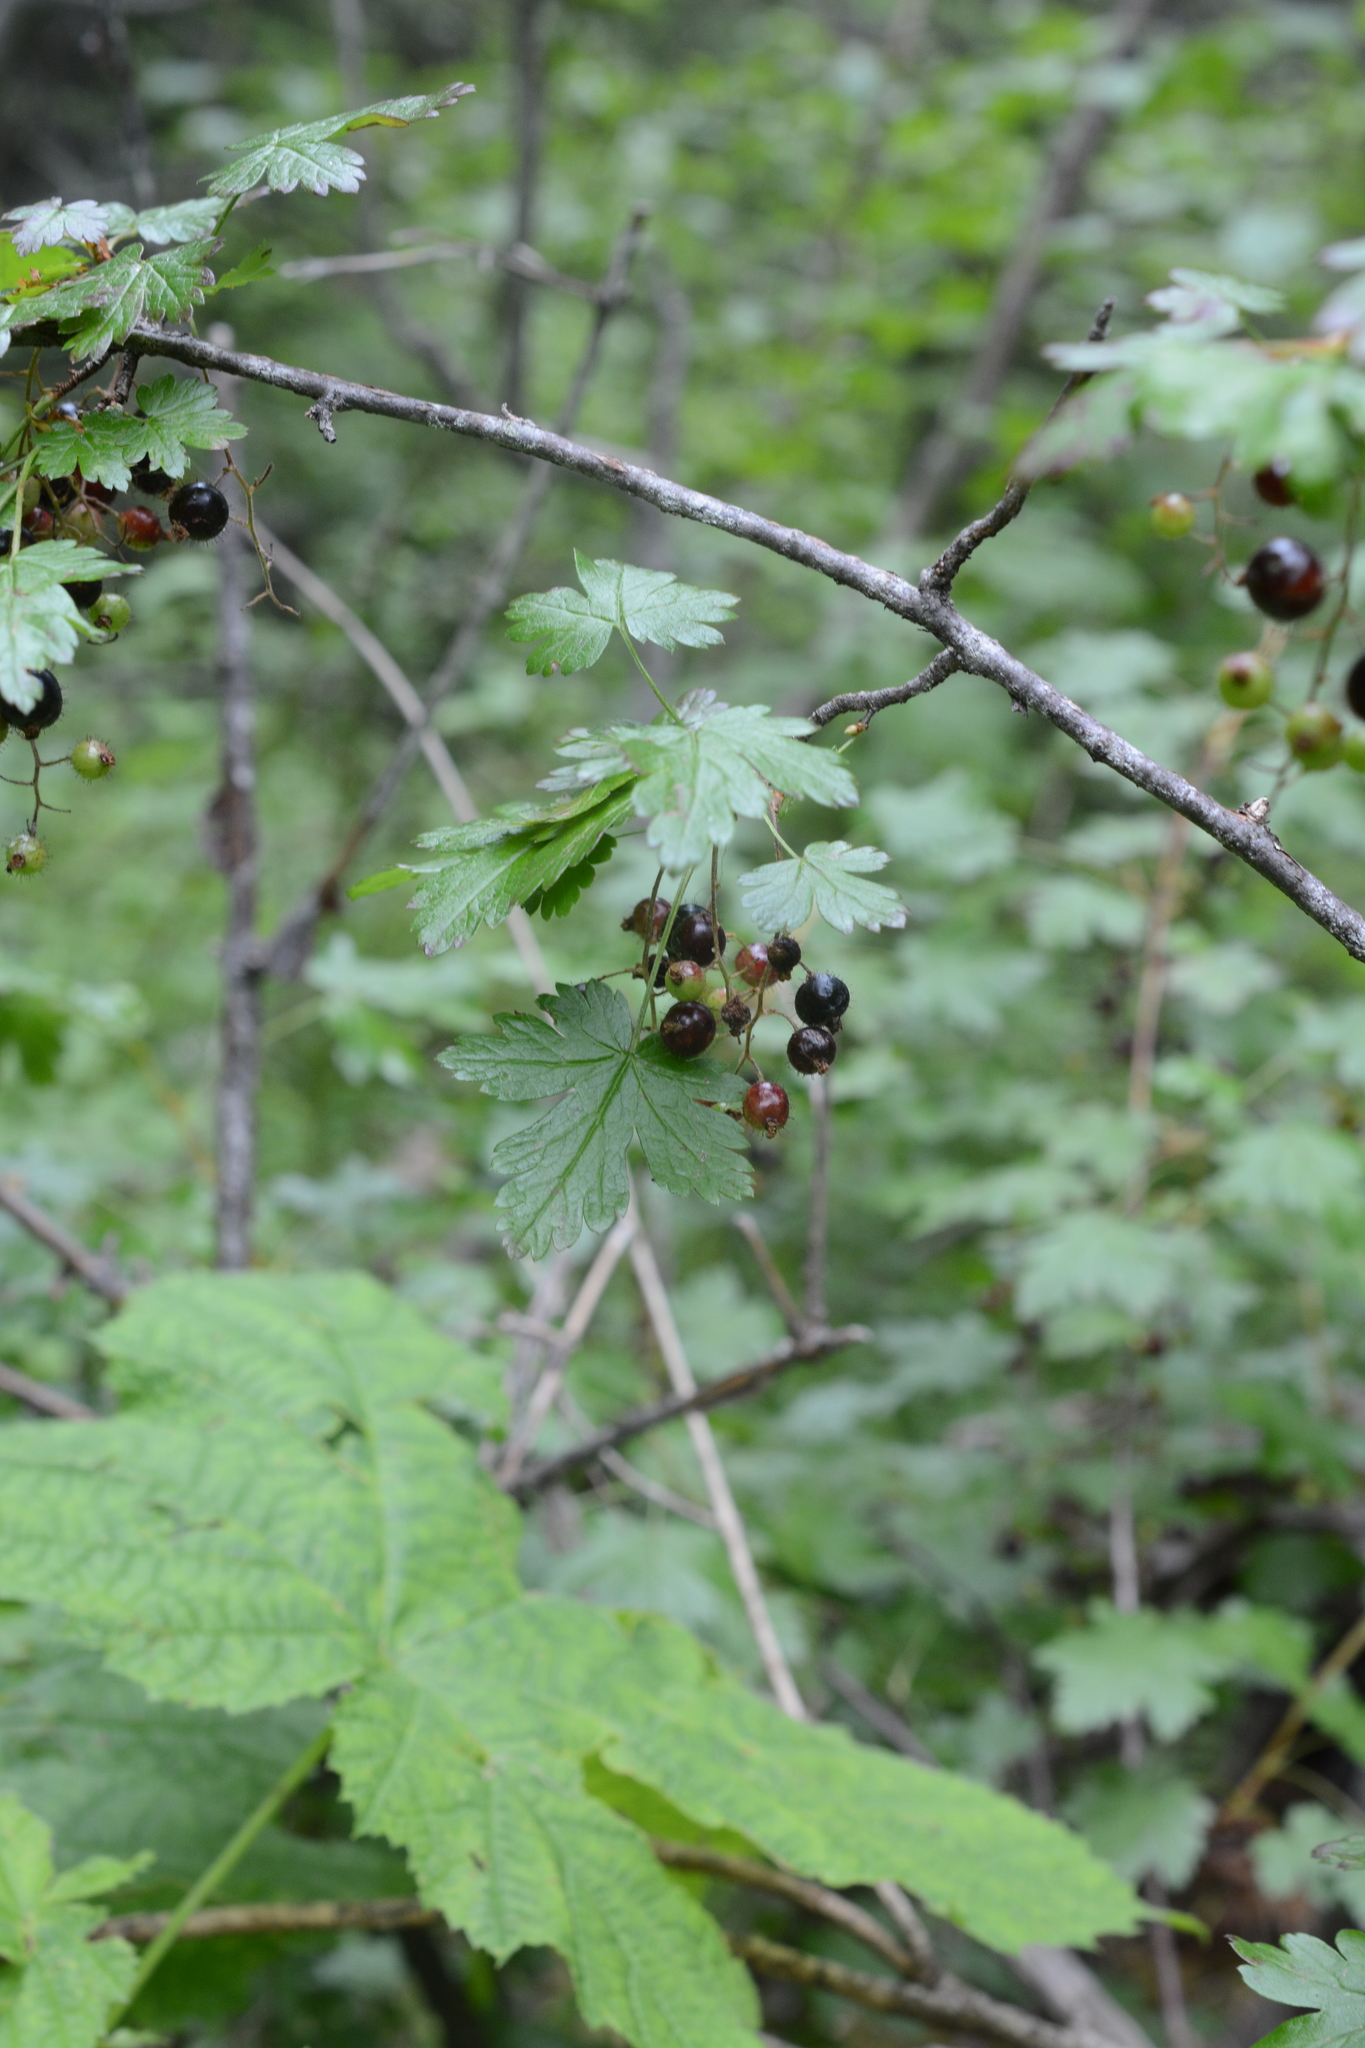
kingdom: Plantae
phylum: Tracheophyta
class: Magnoliopsida
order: Saxifragales
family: Grossulariaceae
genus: Ribes
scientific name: Ribes lacustre
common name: Black gooseberry
